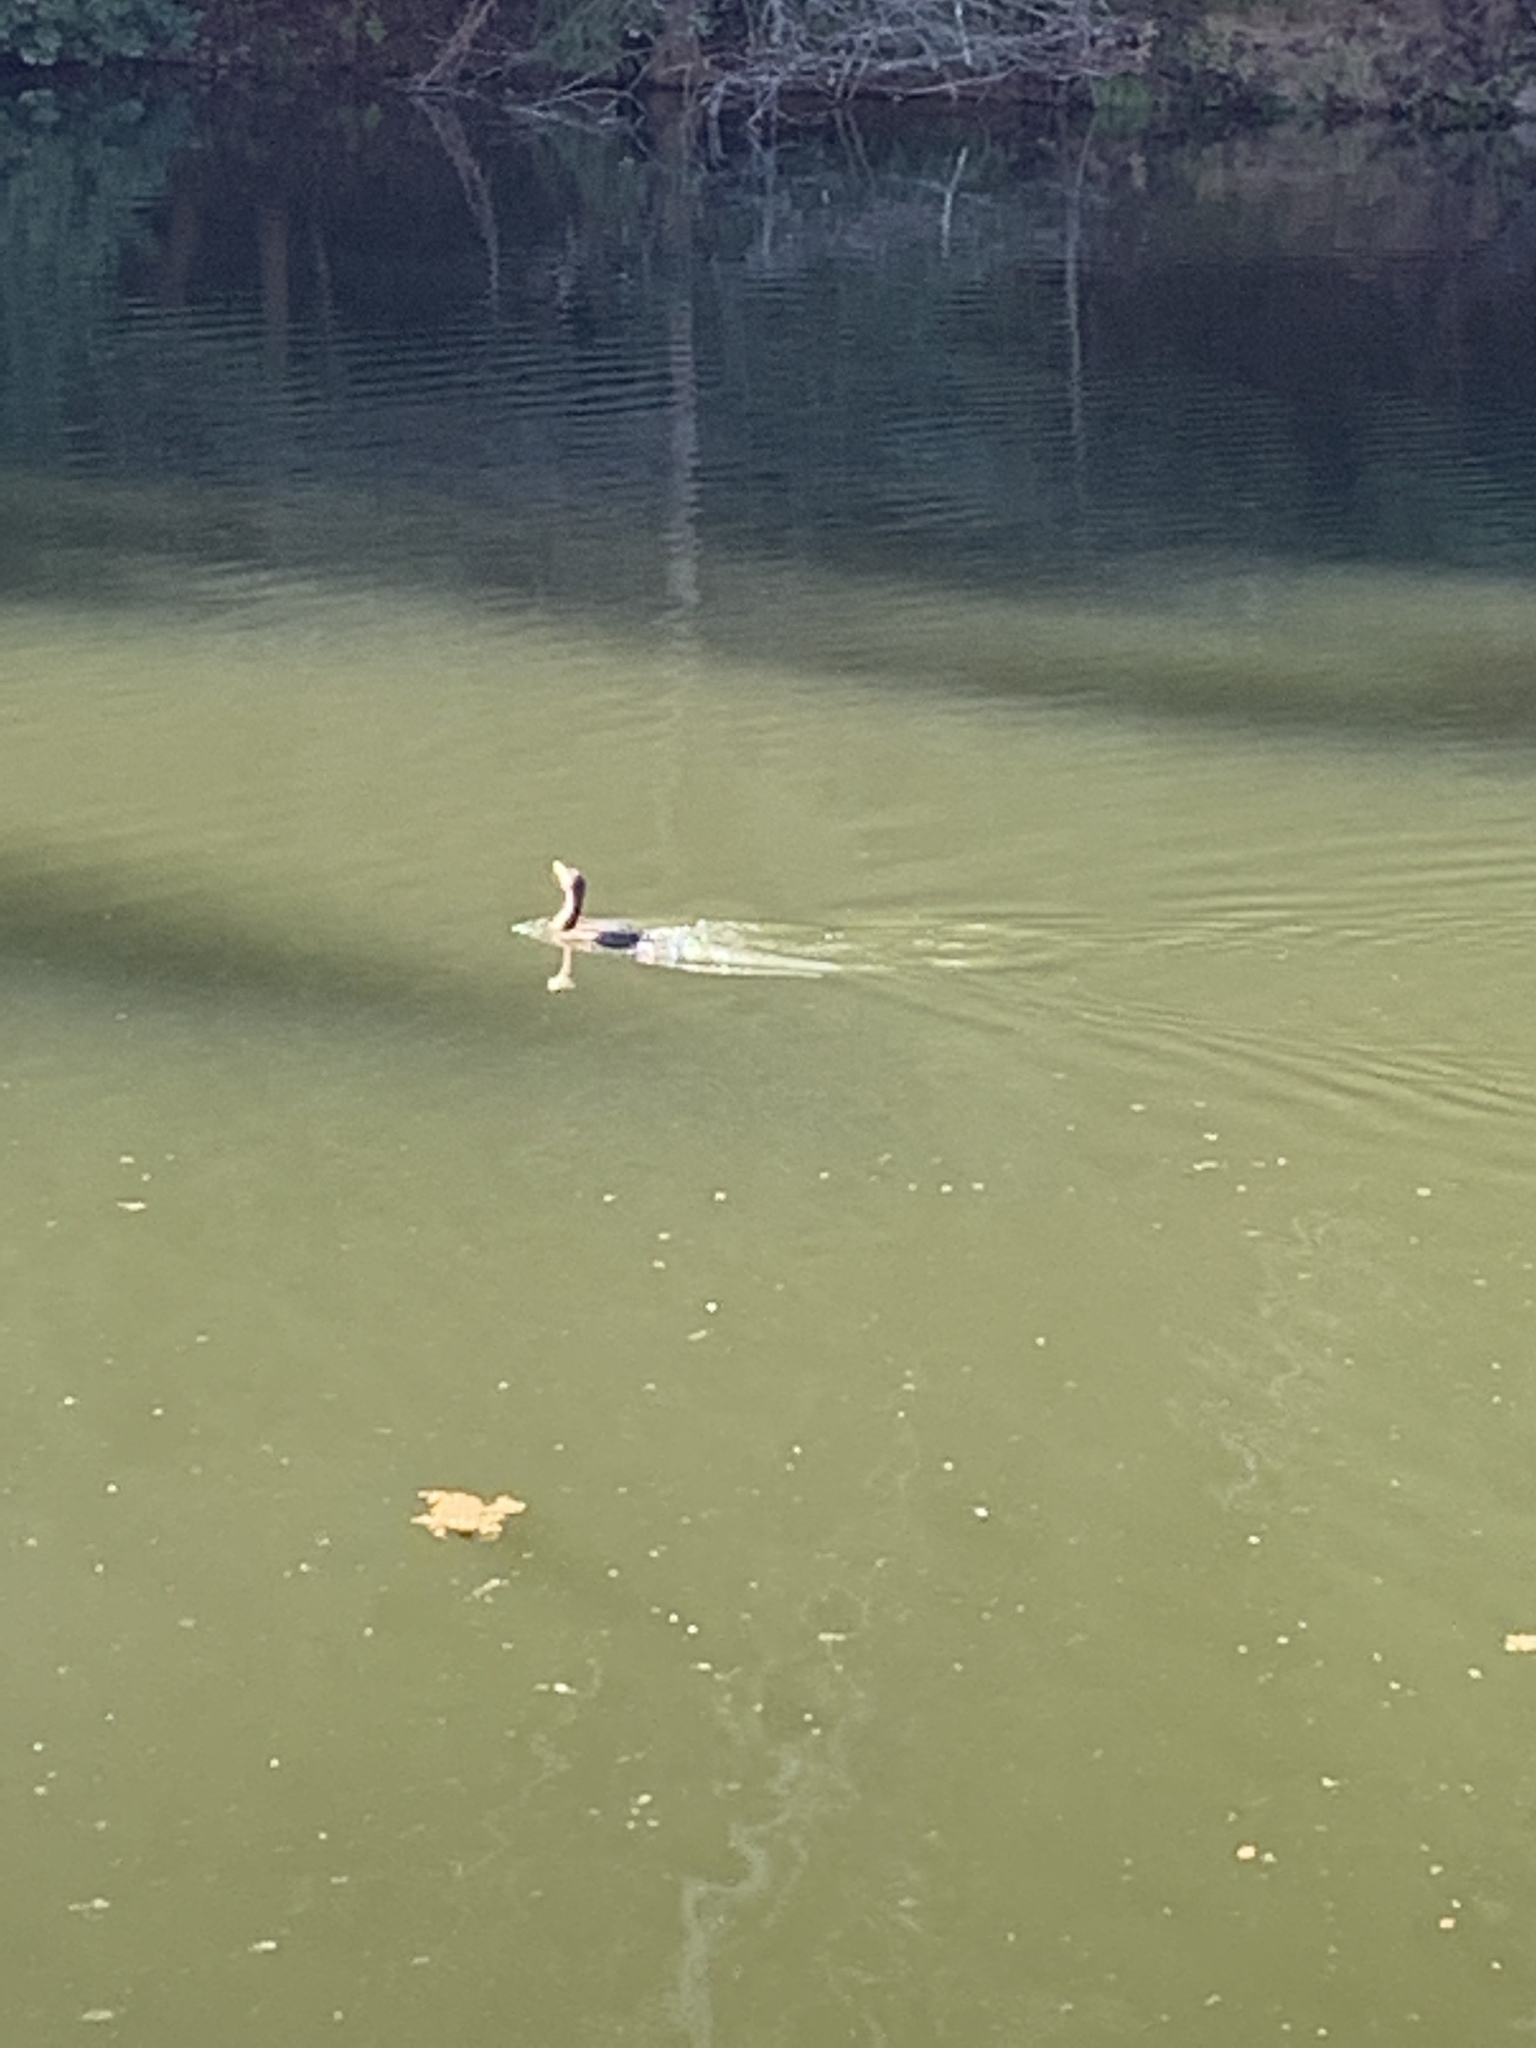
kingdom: Animalia
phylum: Chordata
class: Aves
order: Suliformes
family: Phalacrocoracidae
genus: Phalacrocorax
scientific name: Phalacrocorax auritus
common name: Double-crested cormorant
